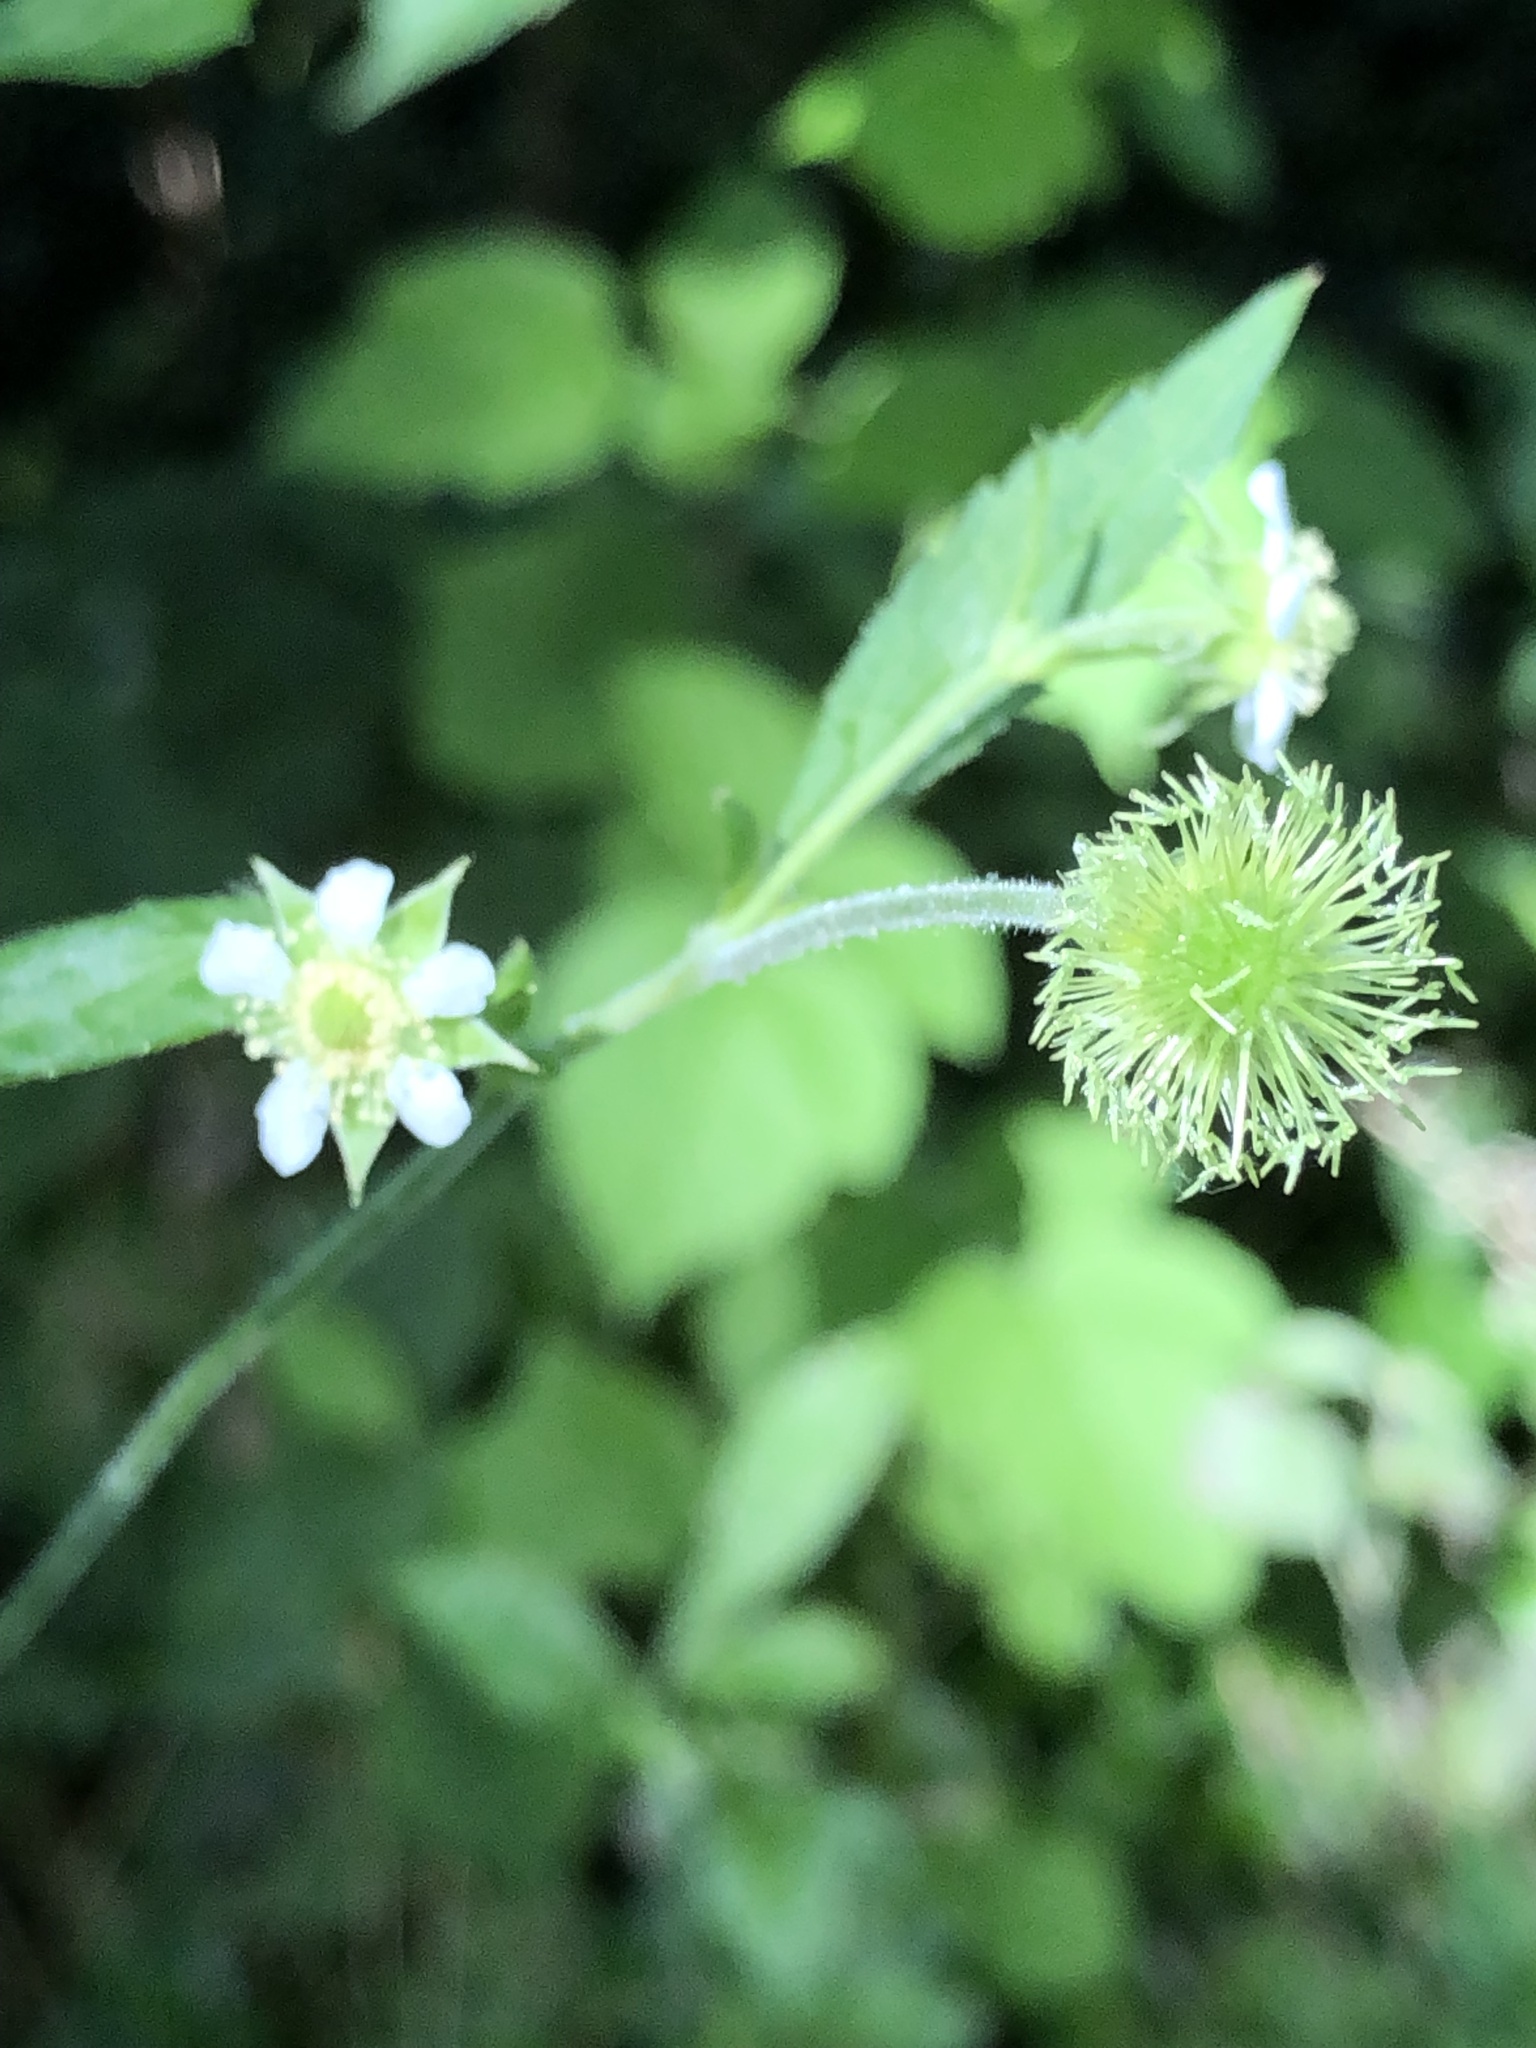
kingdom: Plantae
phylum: Tracheophyta
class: Magnoliopsida
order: Rosales
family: Rosaceae
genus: Geum
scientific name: Geum canadense
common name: White avens
